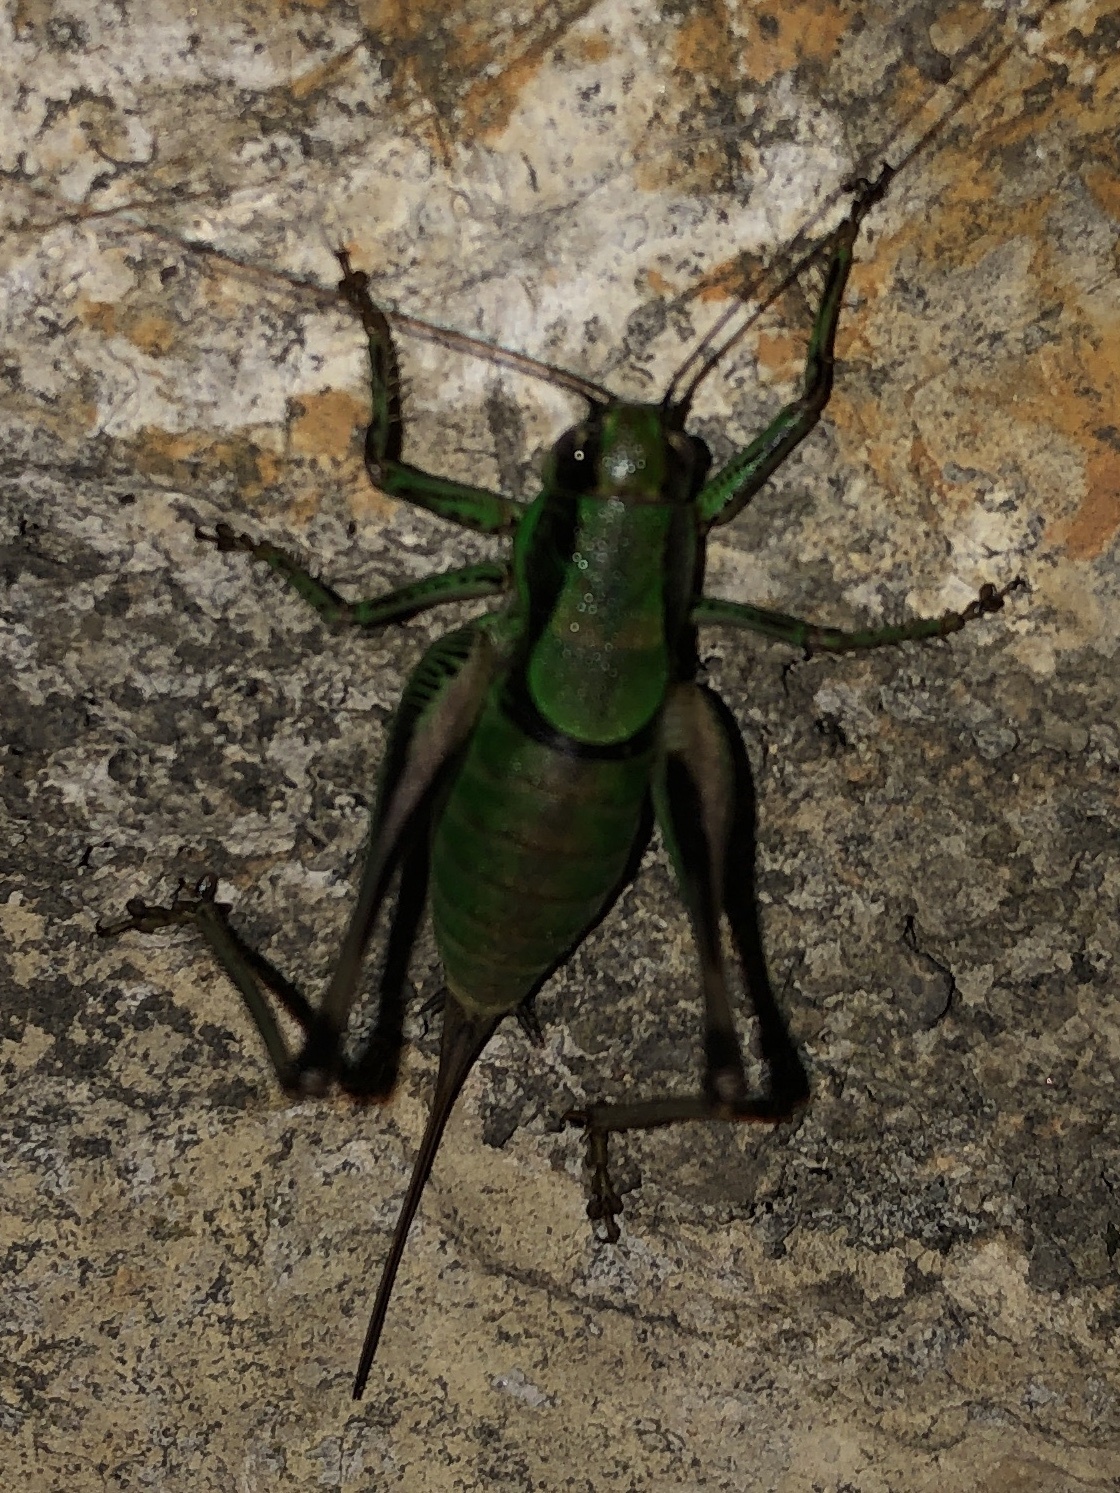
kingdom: Animalia
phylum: Arthropoda
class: Insecta
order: Orthoptera
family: Tettigoniidae
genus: Eupholidoptera
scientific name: Eupholidoptera chabrieri
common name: Chabrier's marbled bush-cricket
